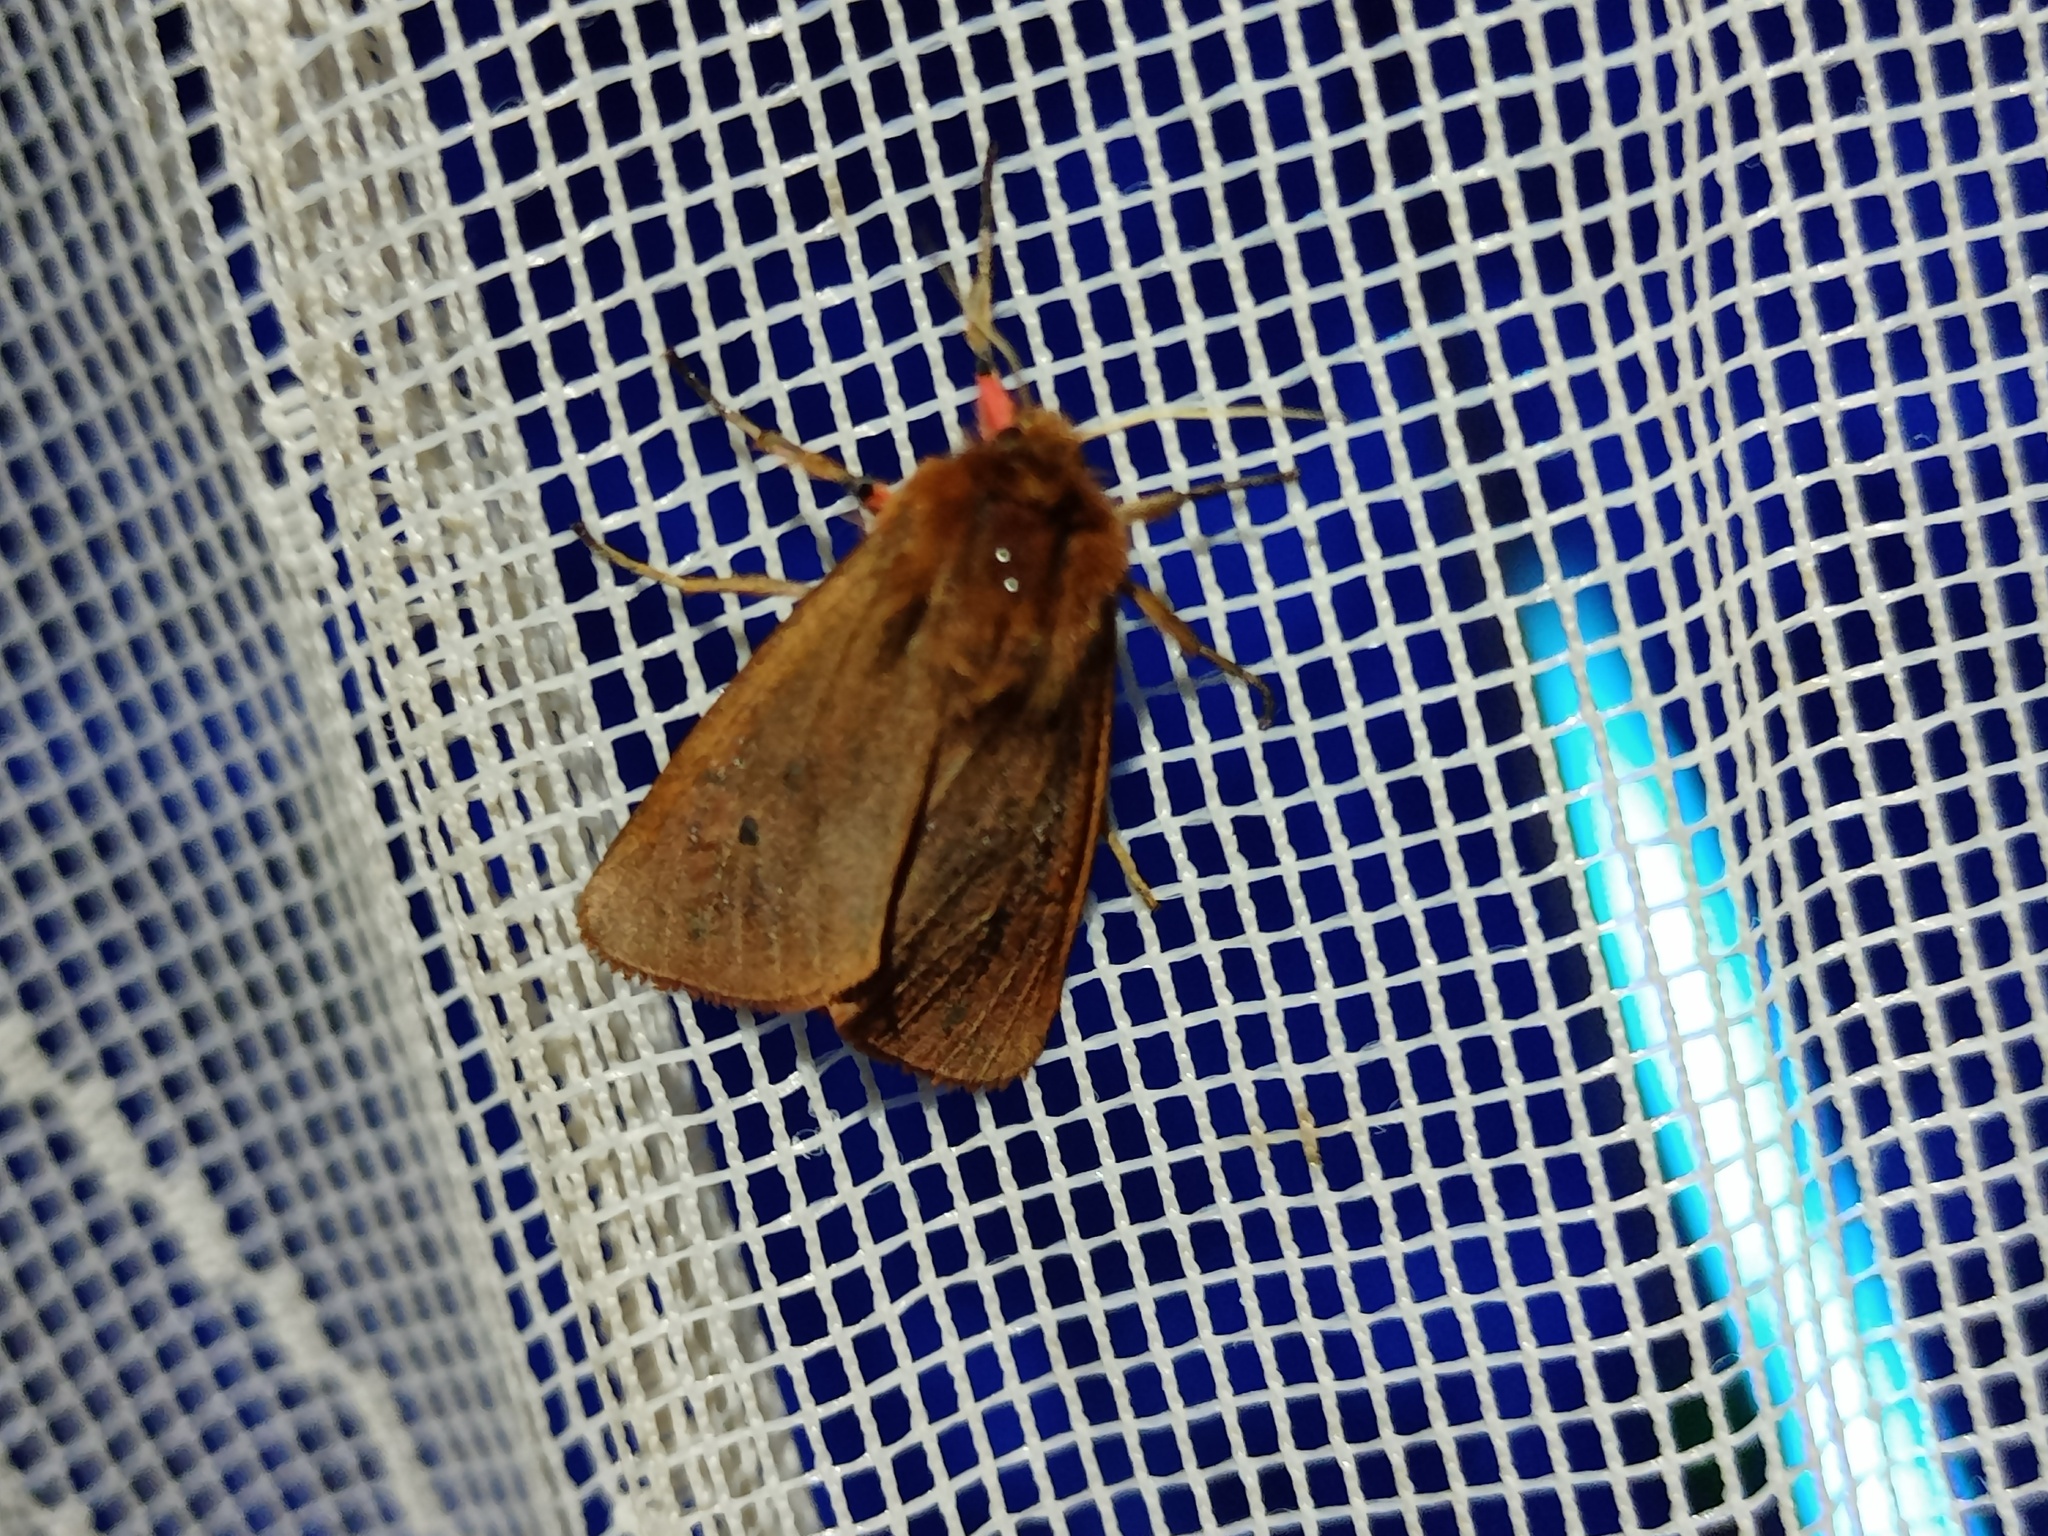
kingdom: Animalia
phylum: Arthropoda
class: Insecta
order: Lepidoptera
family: Erebidae
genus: Phragmatobia
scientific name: Phragmatobia fuliginosa
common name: Ruby tiger
